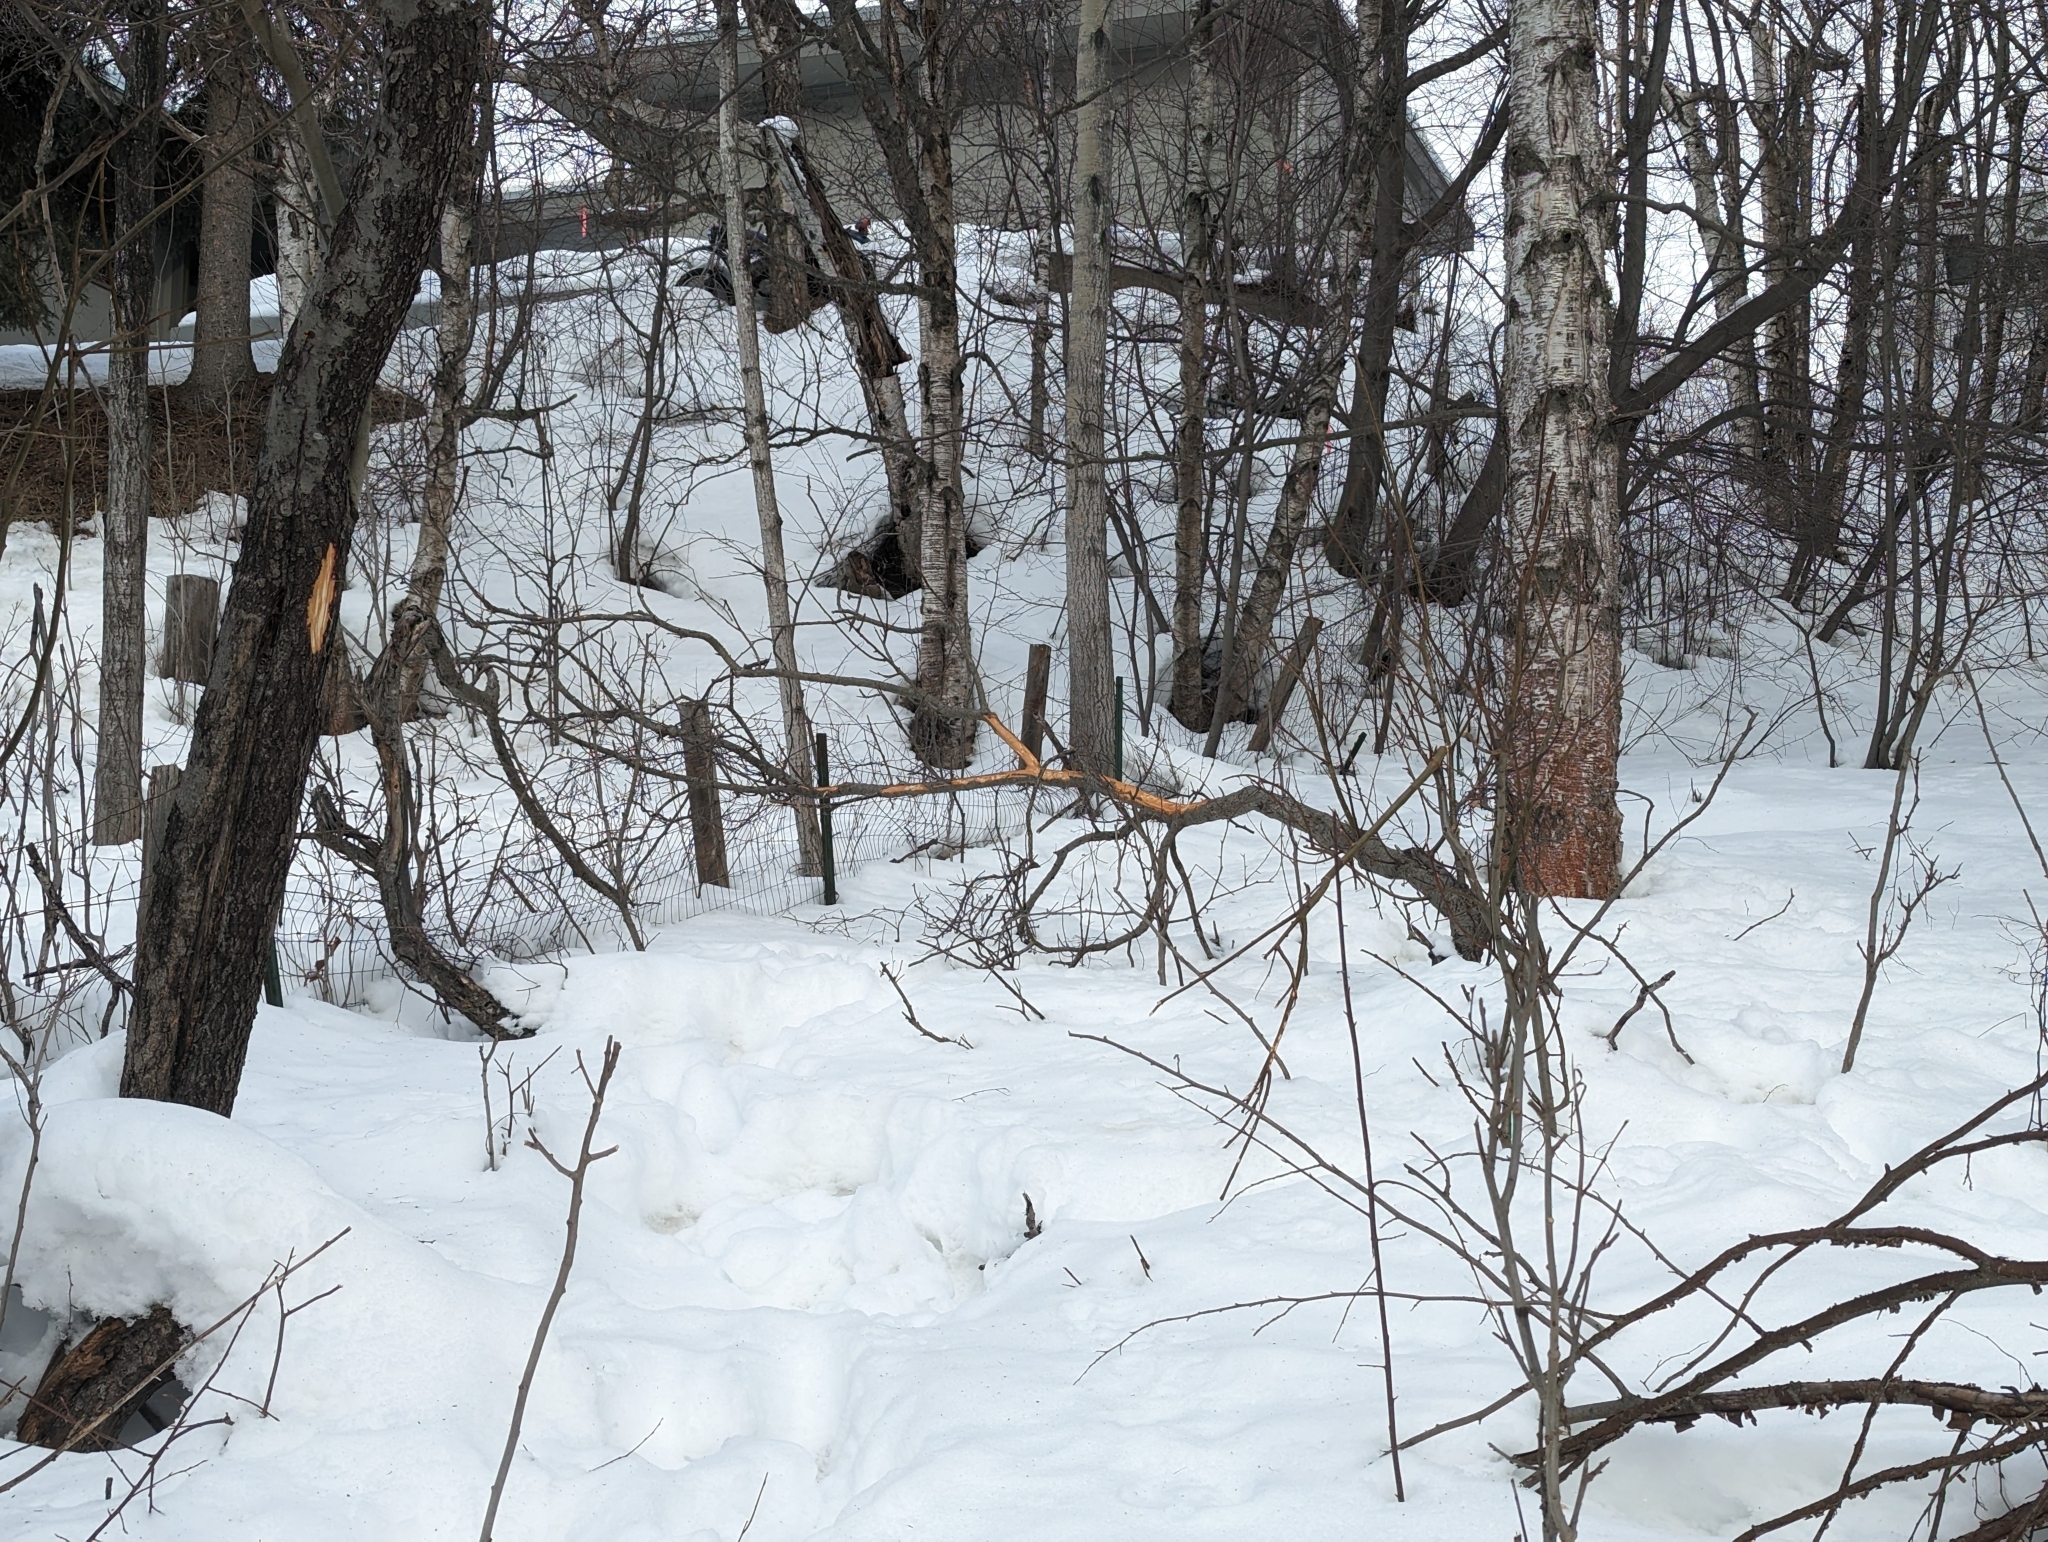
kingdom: Animalia
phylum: Chordata
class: Mammalia
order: Artiodactyla
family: Cervidae
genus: Alces
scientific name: Alces alces
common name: Moose
